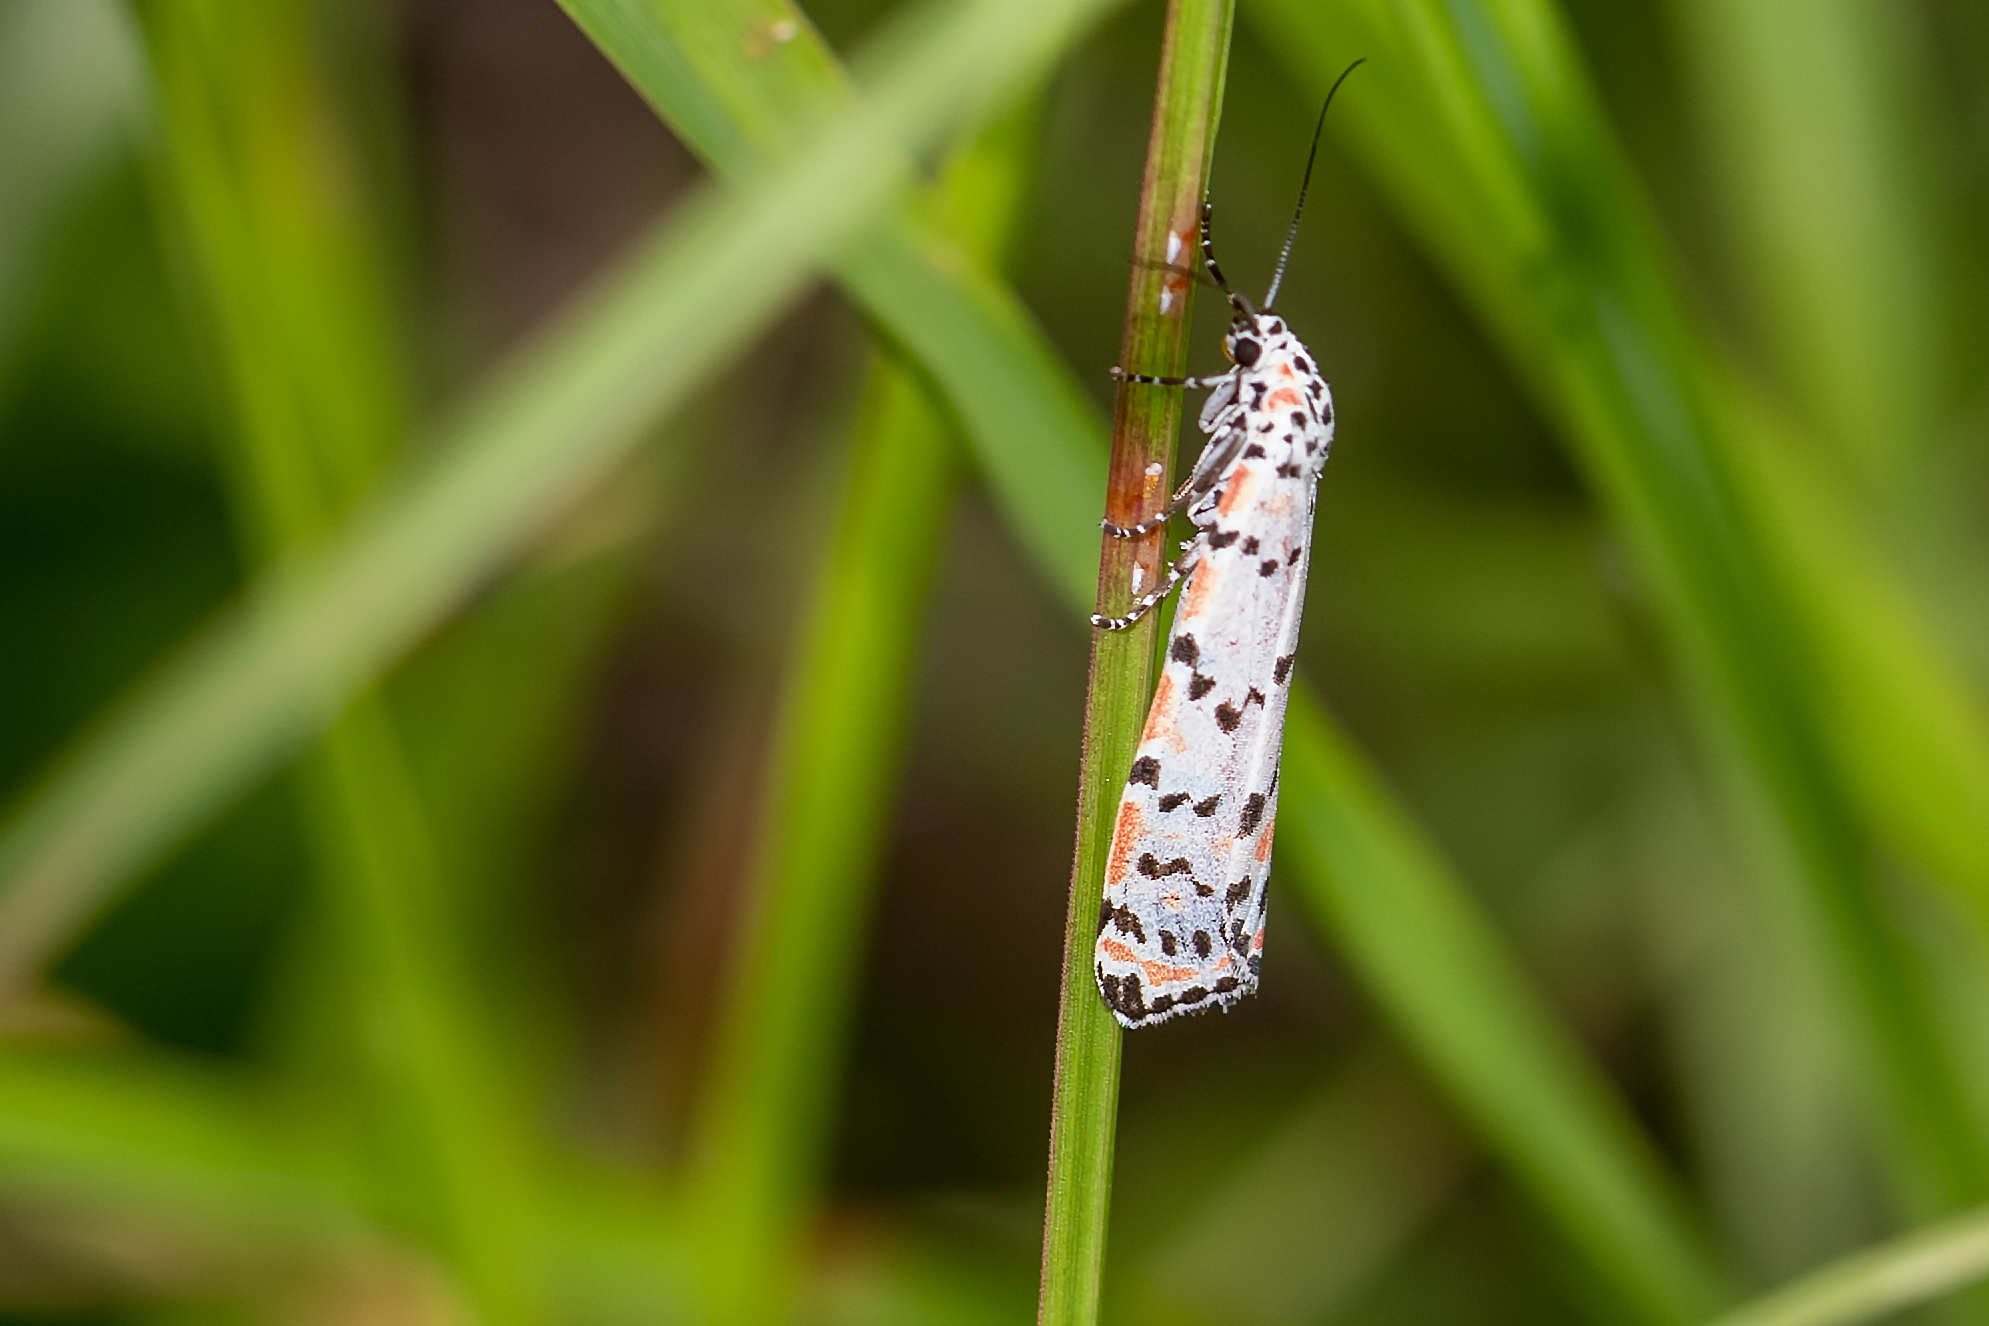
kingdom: Animalia
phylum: Arthropoda
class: Insecta
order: Lepidoptera
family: Erebidae
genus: Utetheisa
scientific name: Utetheisa ornatrix
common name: Beautiful utetheisa
